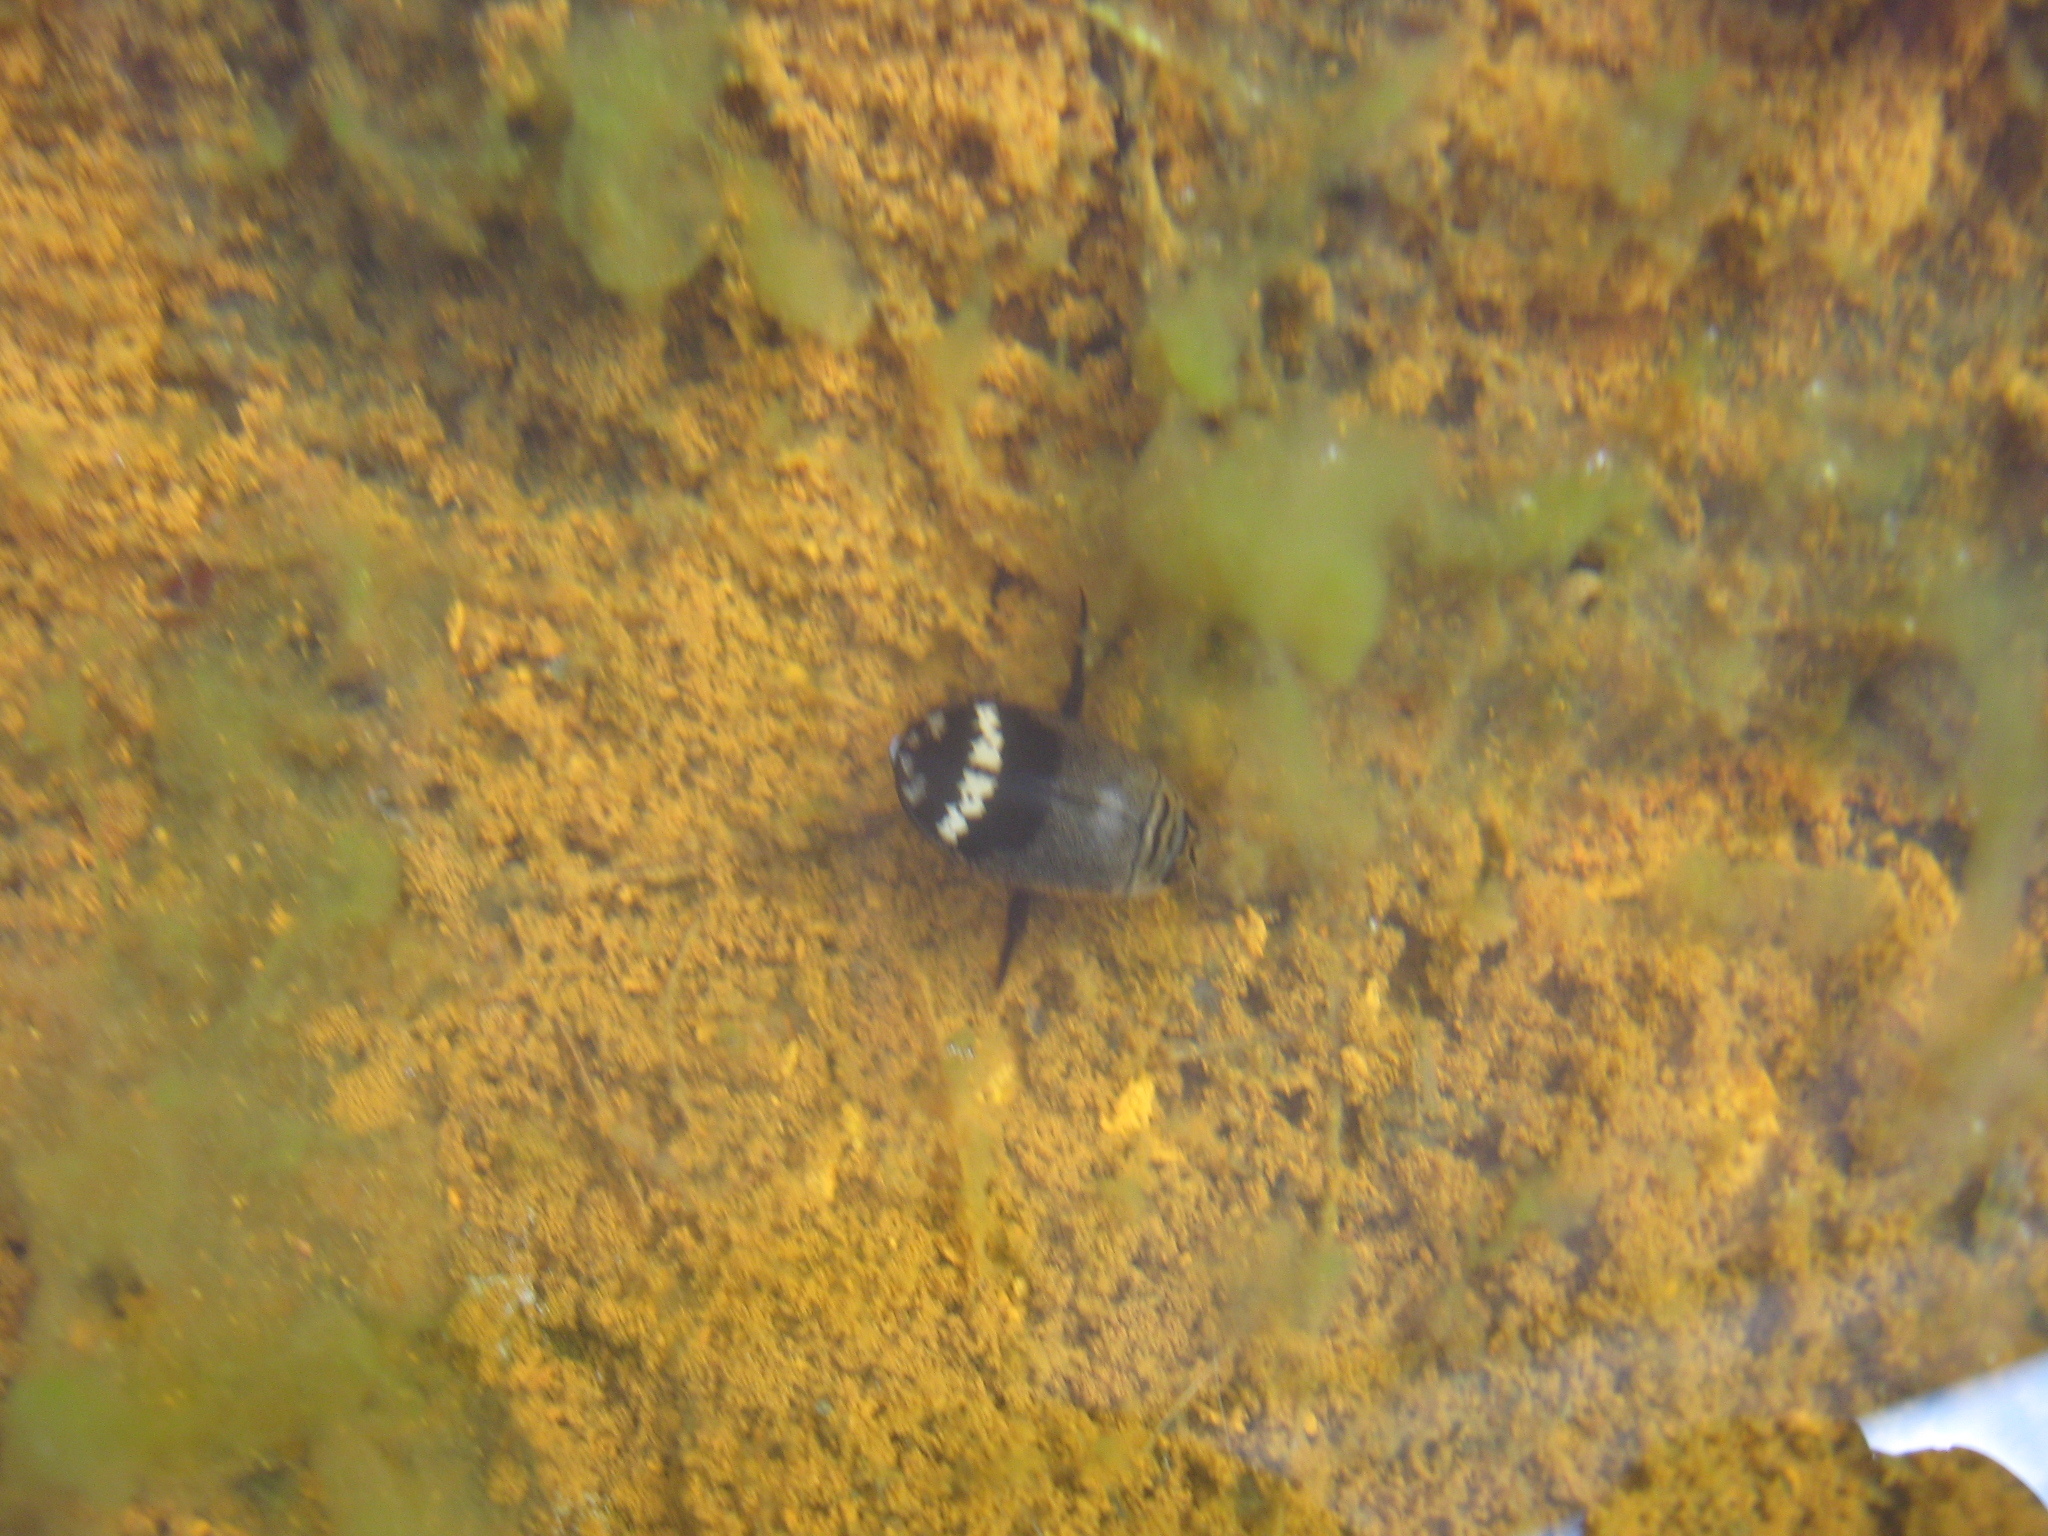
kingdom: Animalia
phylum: Arthropoda
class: Insecta
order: Coleoptera
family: Dytiscidae
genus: Acilius
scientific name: Acilius mediatus
